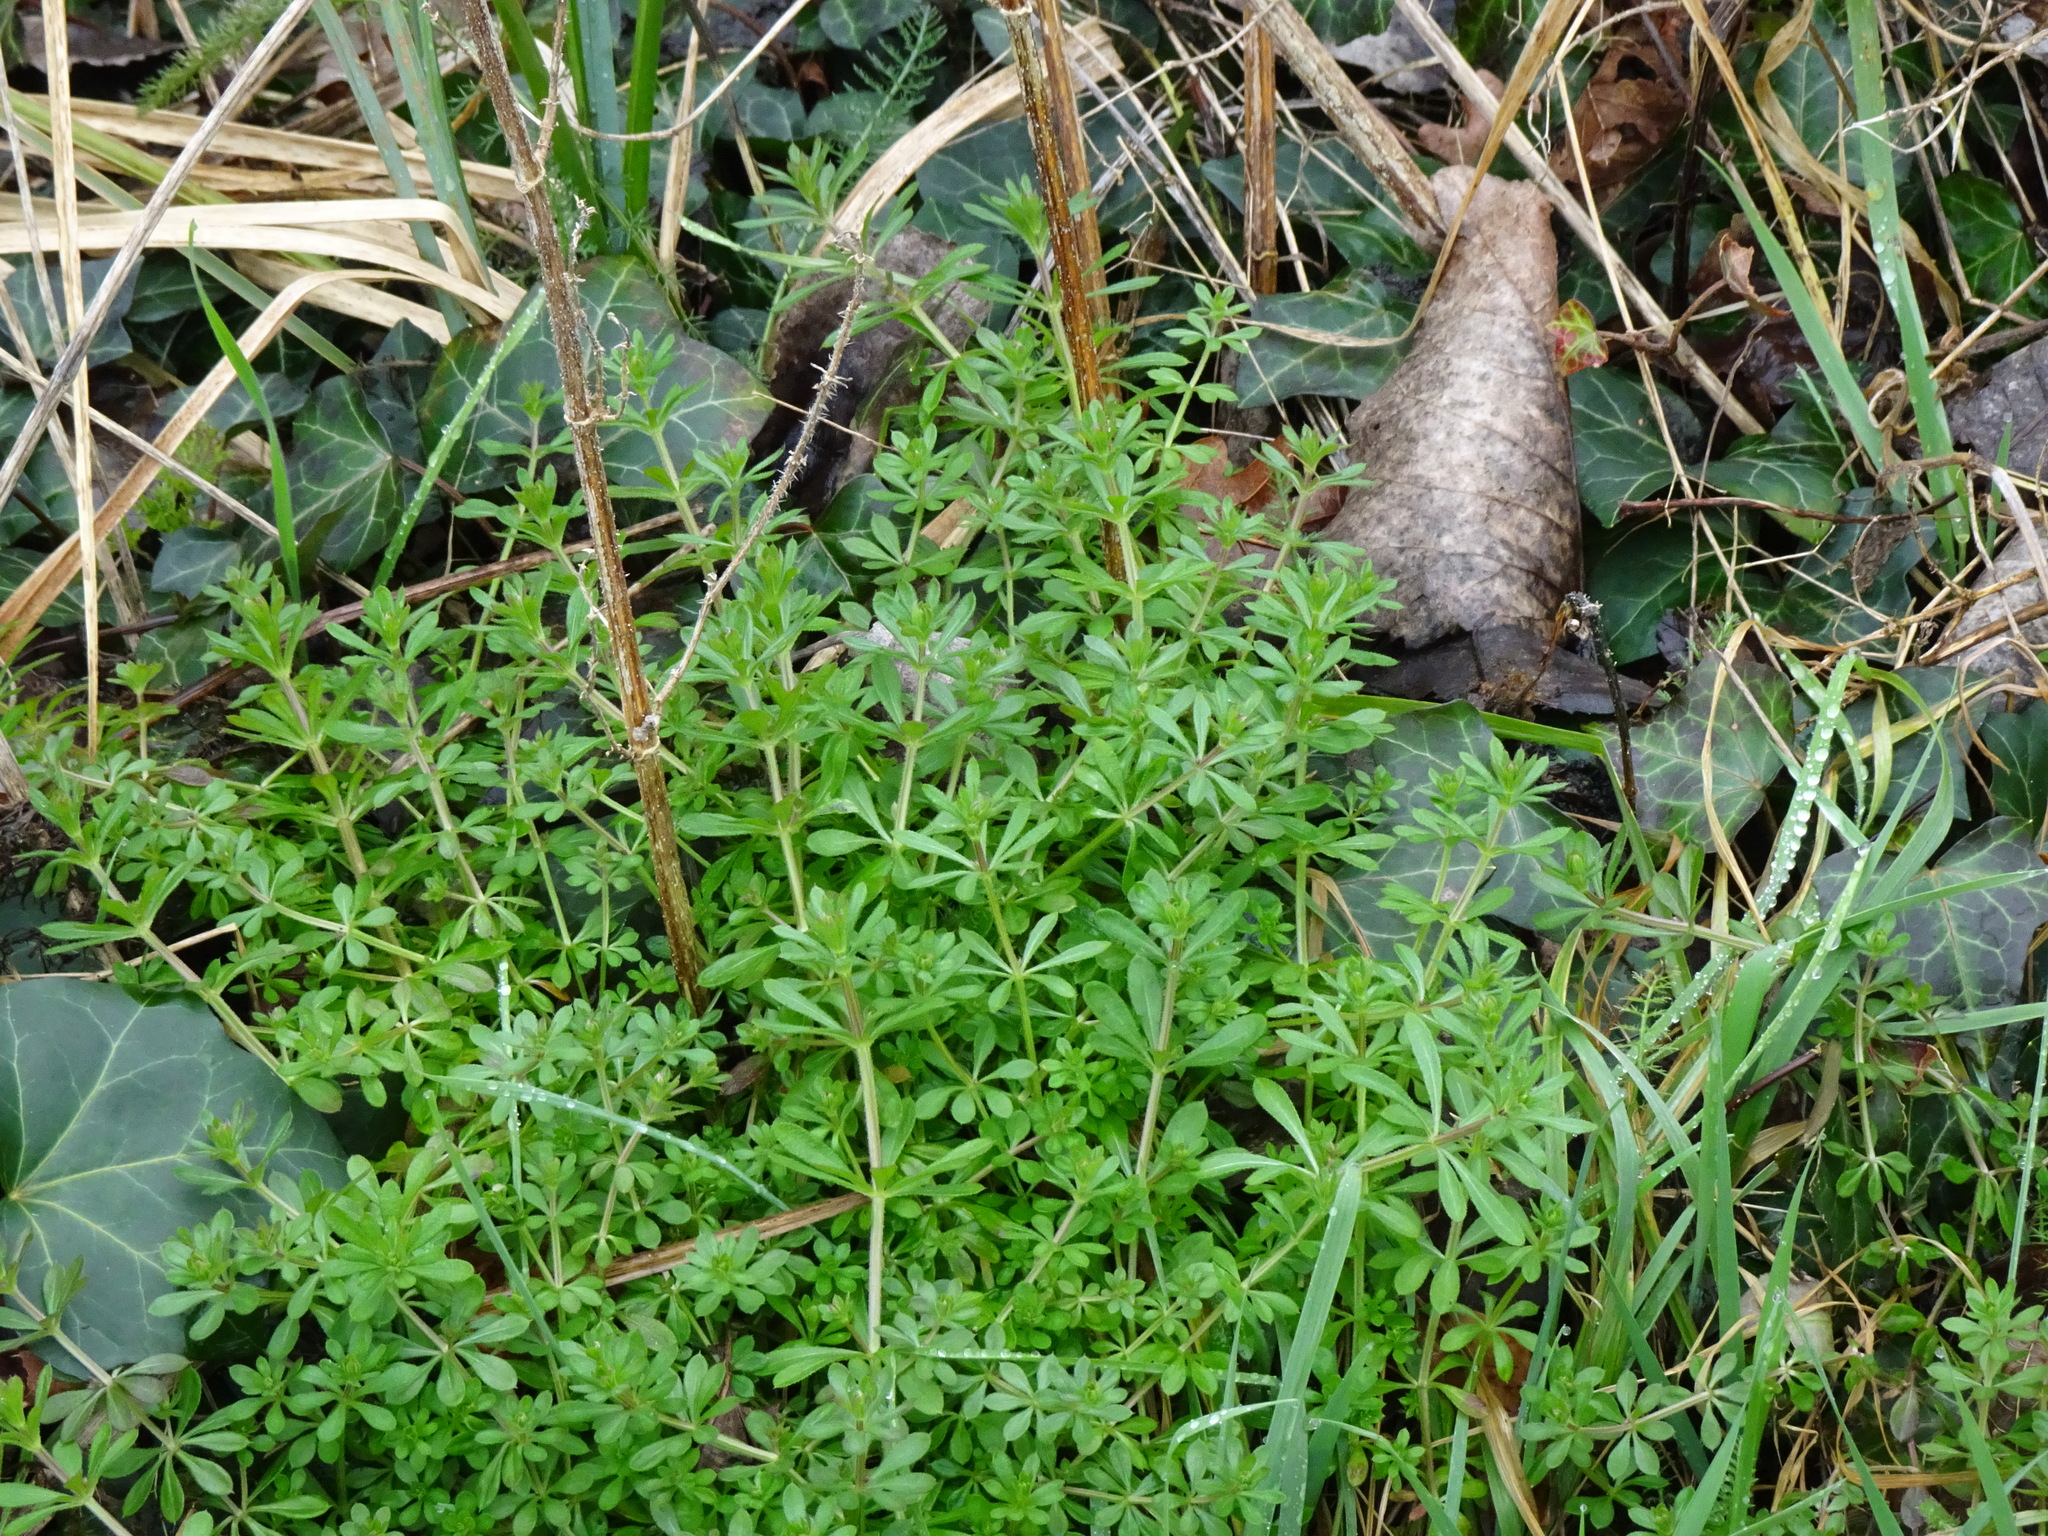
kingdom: Plantae
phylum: Tracheophyta
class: Magnoliopsida
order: Gentianales
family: Rubiaceae
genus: Galium
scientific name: Galium aparine
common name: Cleavers
